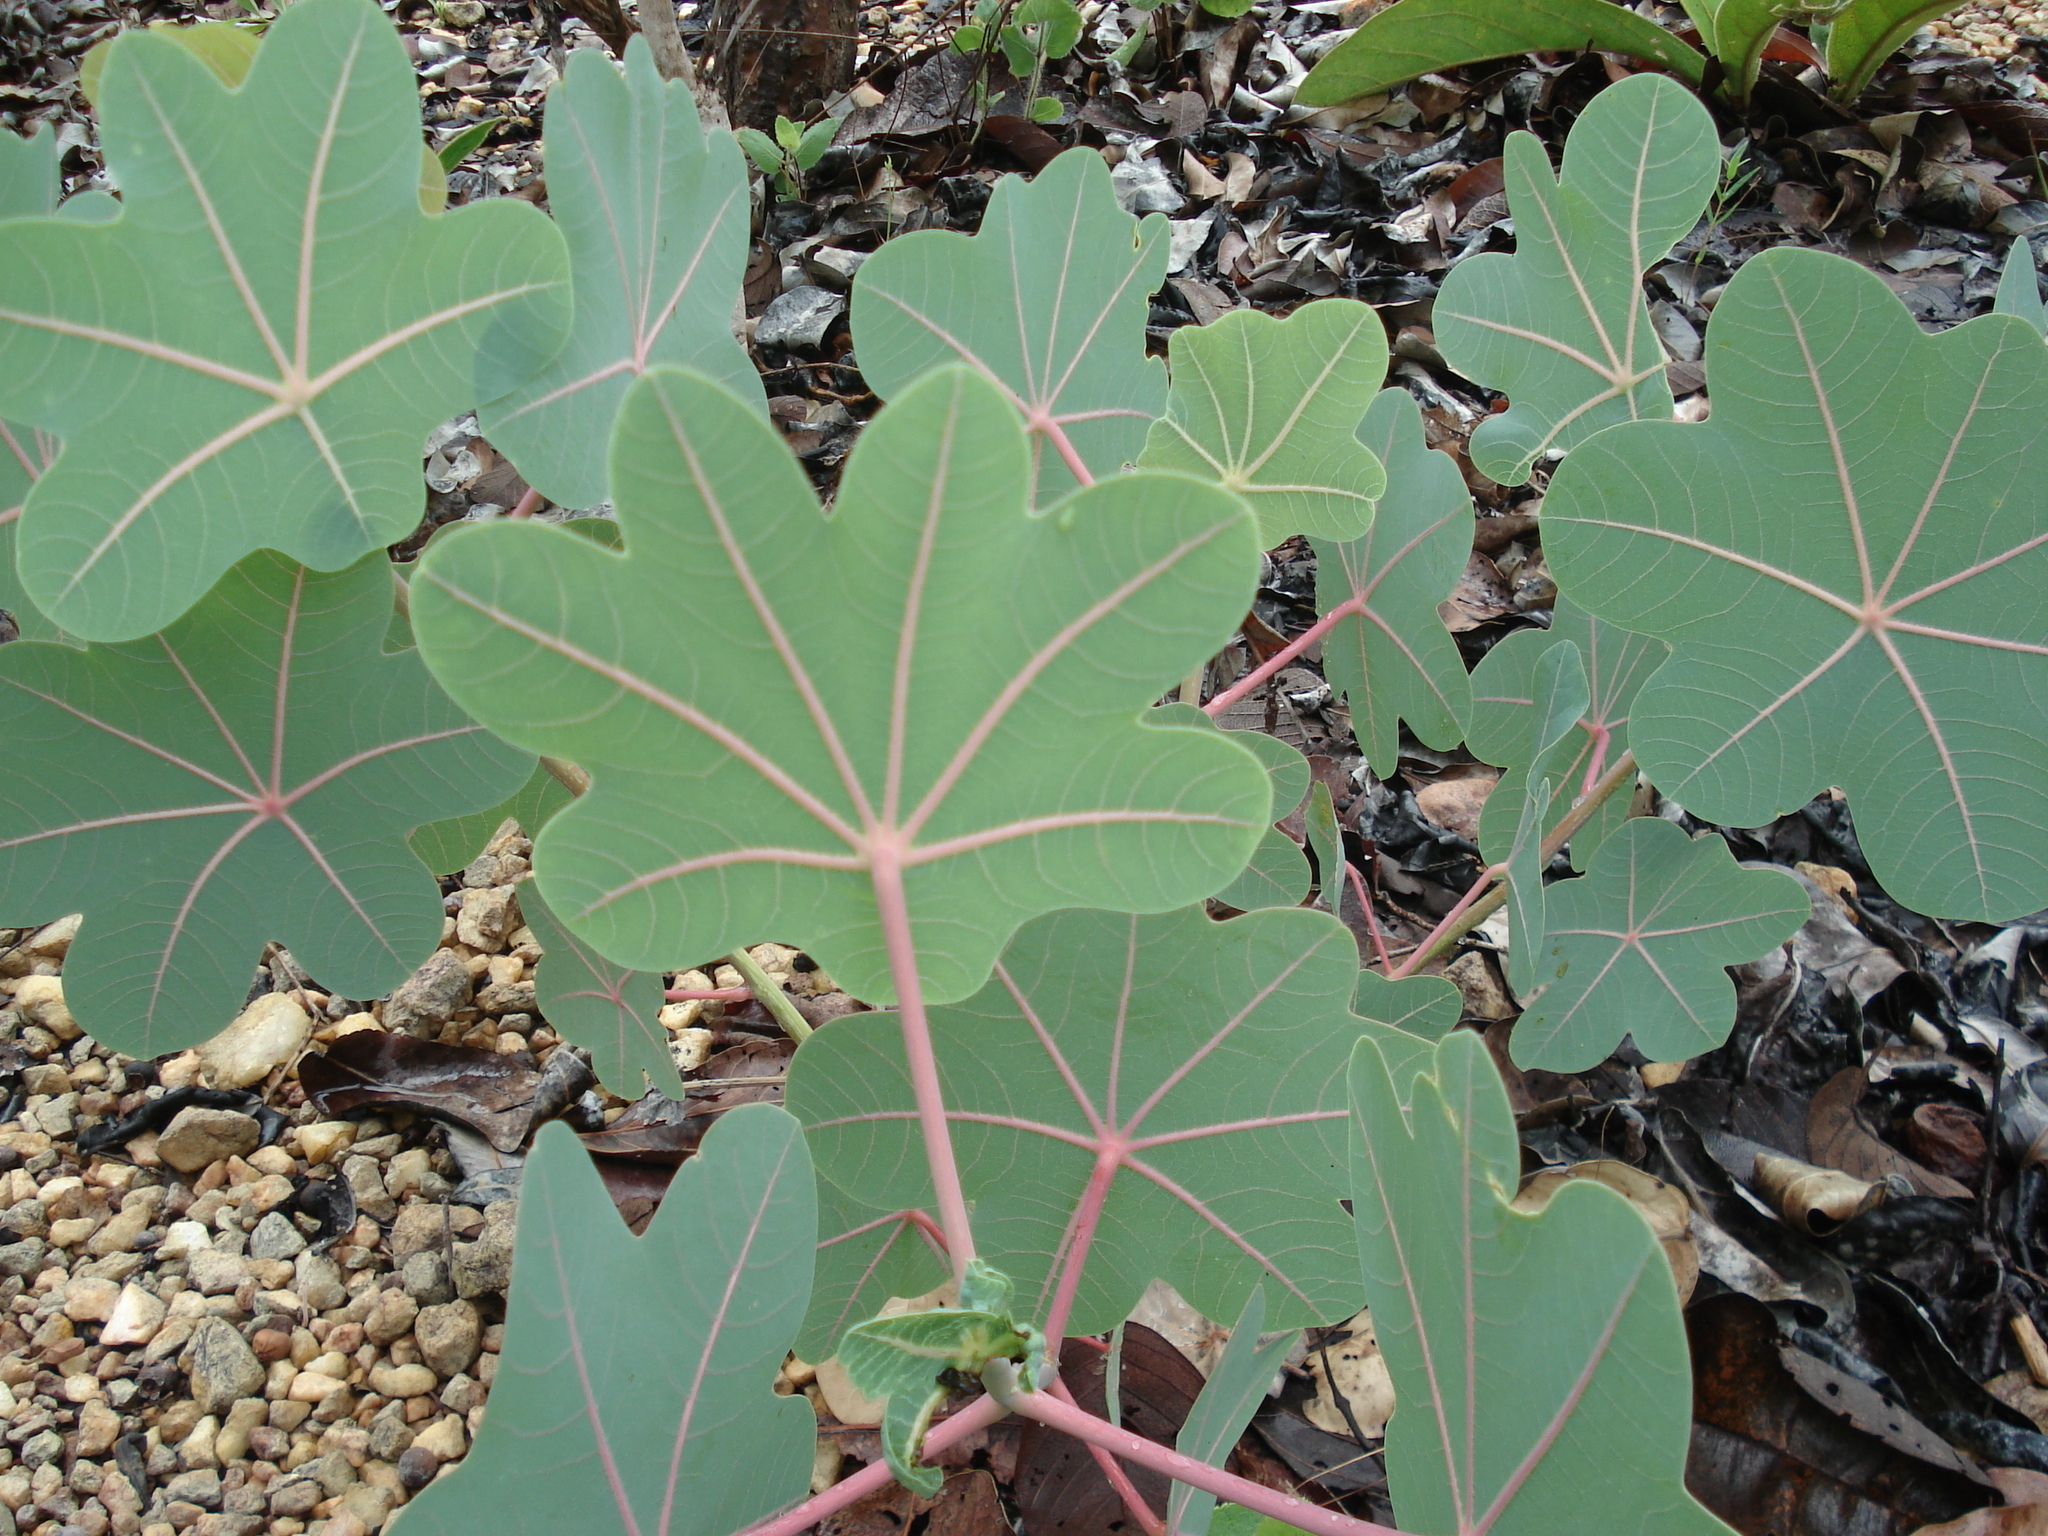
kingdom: Plantae
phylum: Tracheophyta
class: Magnoliopsida
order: Malpighiales
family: Euphorbiaceae
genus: Manihot
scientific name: Manihot peltata
